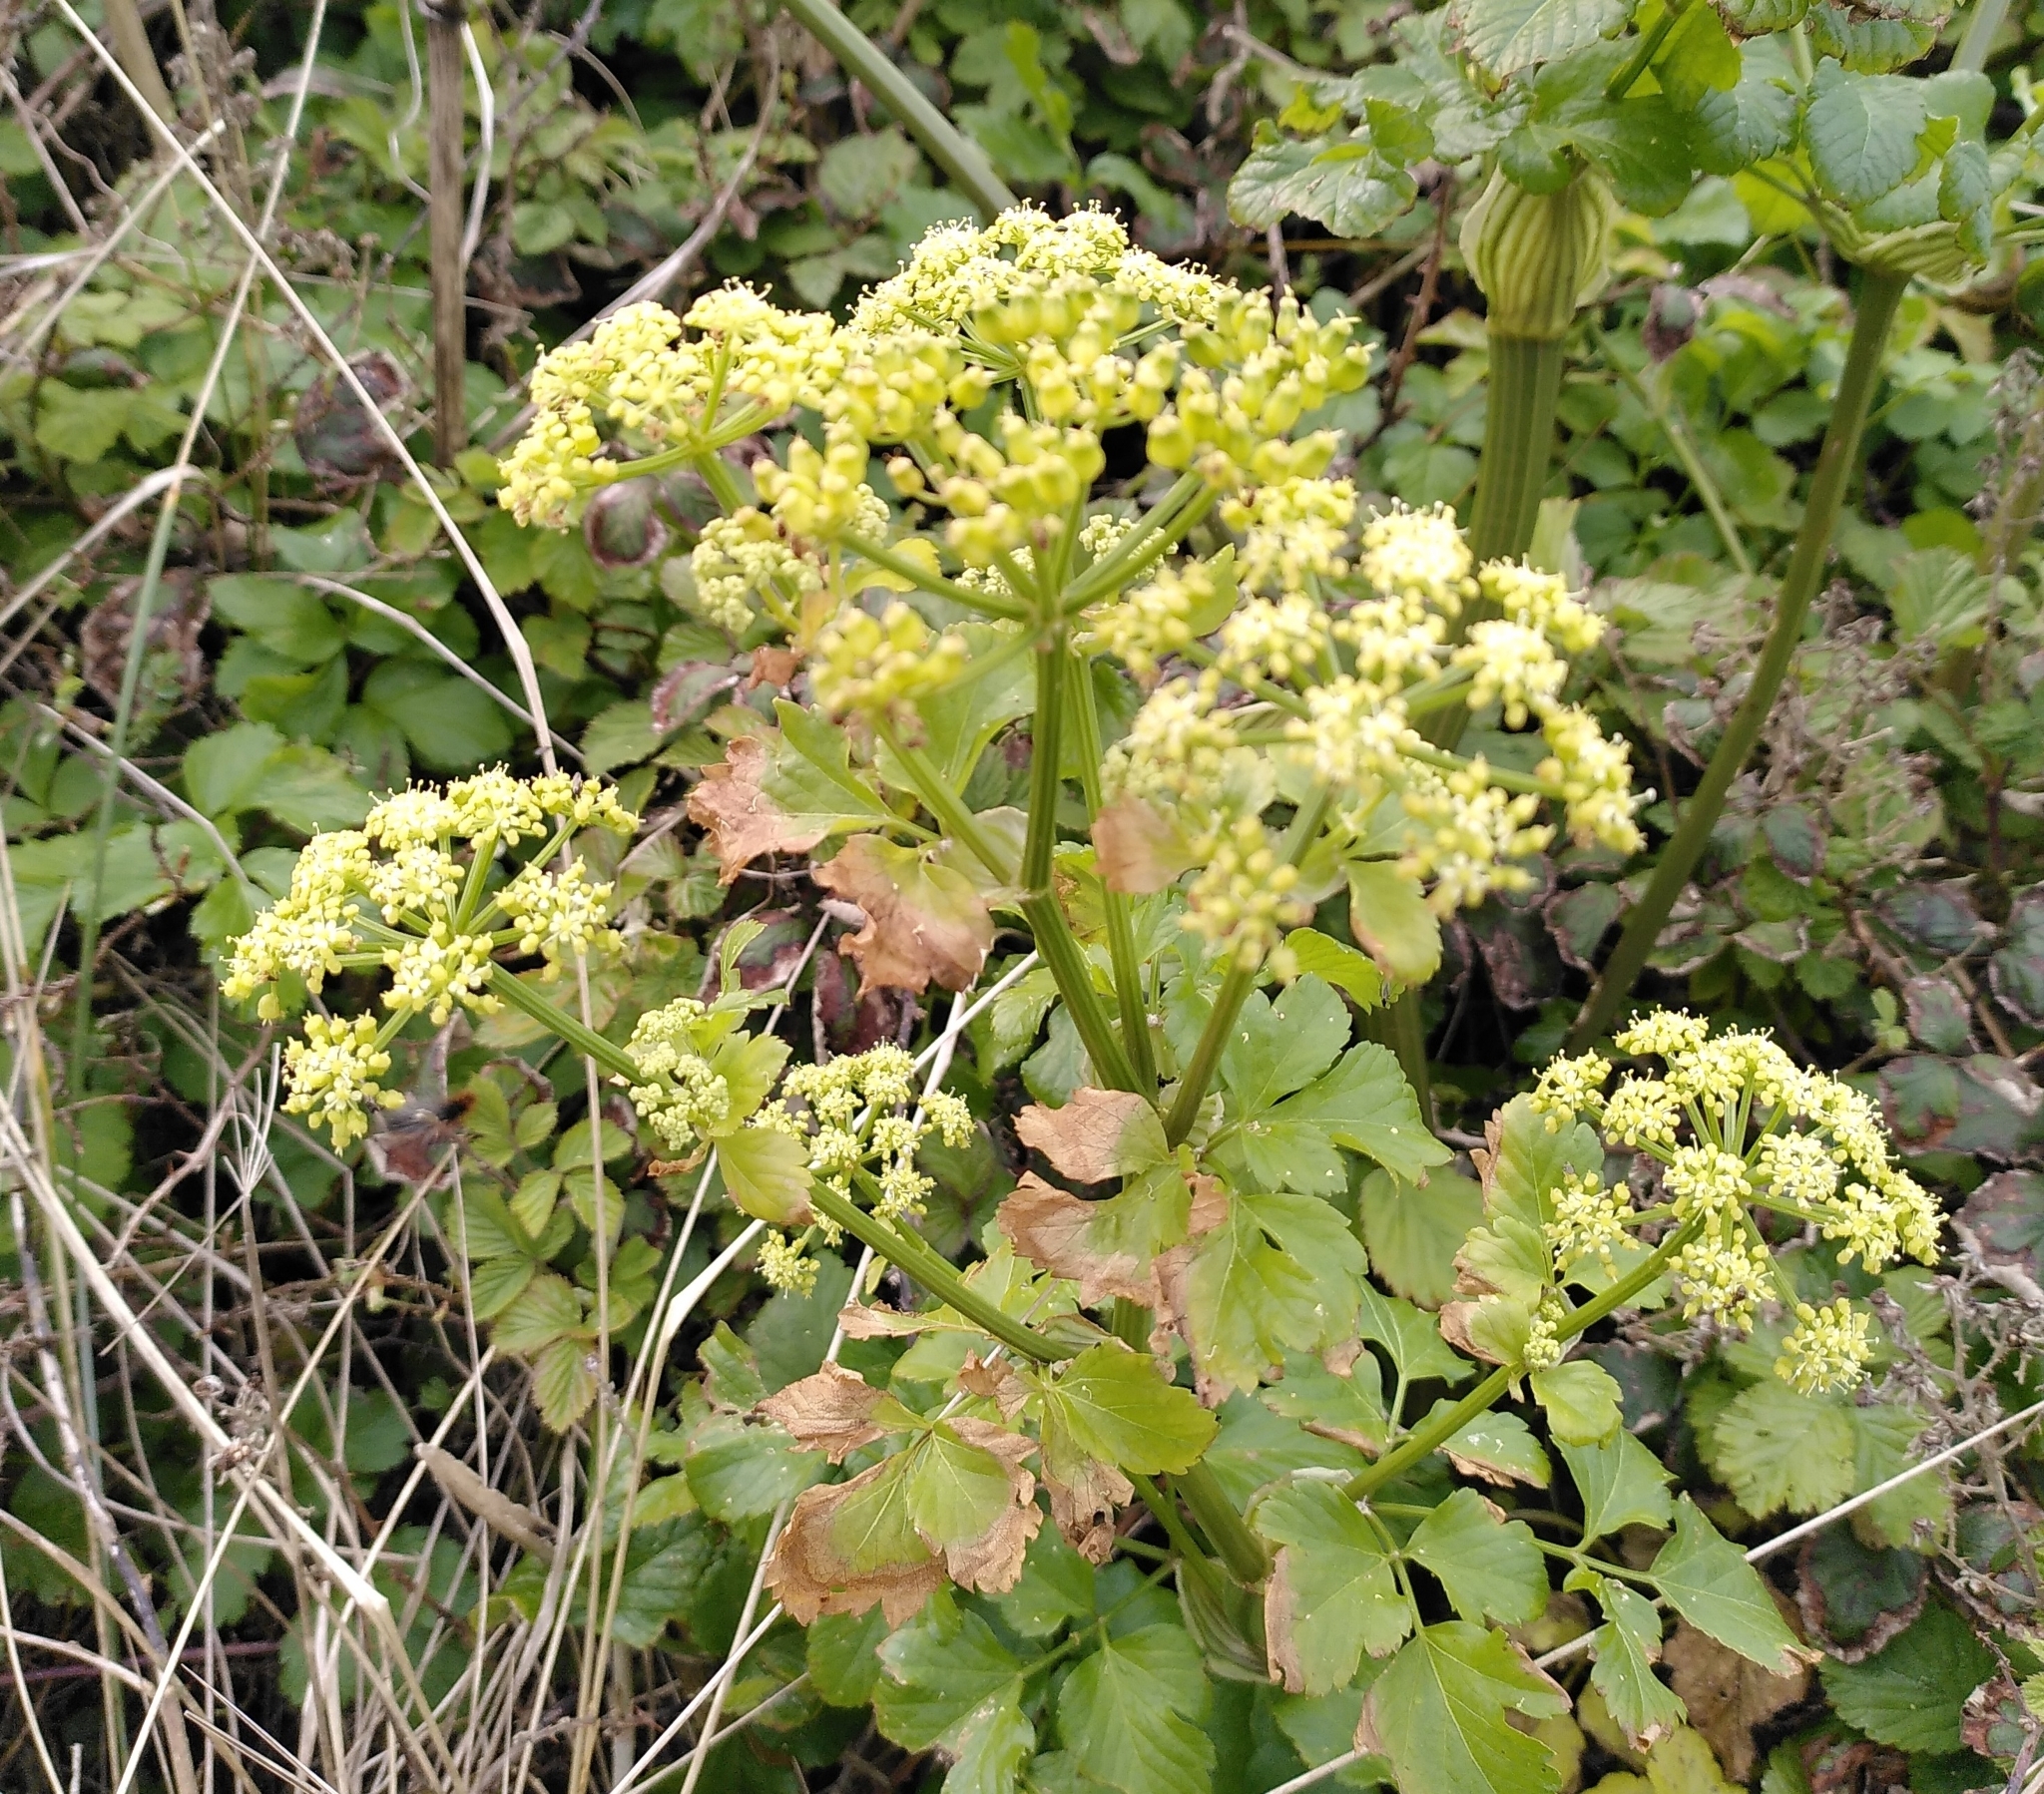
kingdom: Plantae
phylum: Tracheophyta
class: Magnoliopsida
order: Apiales
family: Apiaceae
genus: Smyrnium
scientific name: Smyrnium olusatrum
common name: Alexanders
